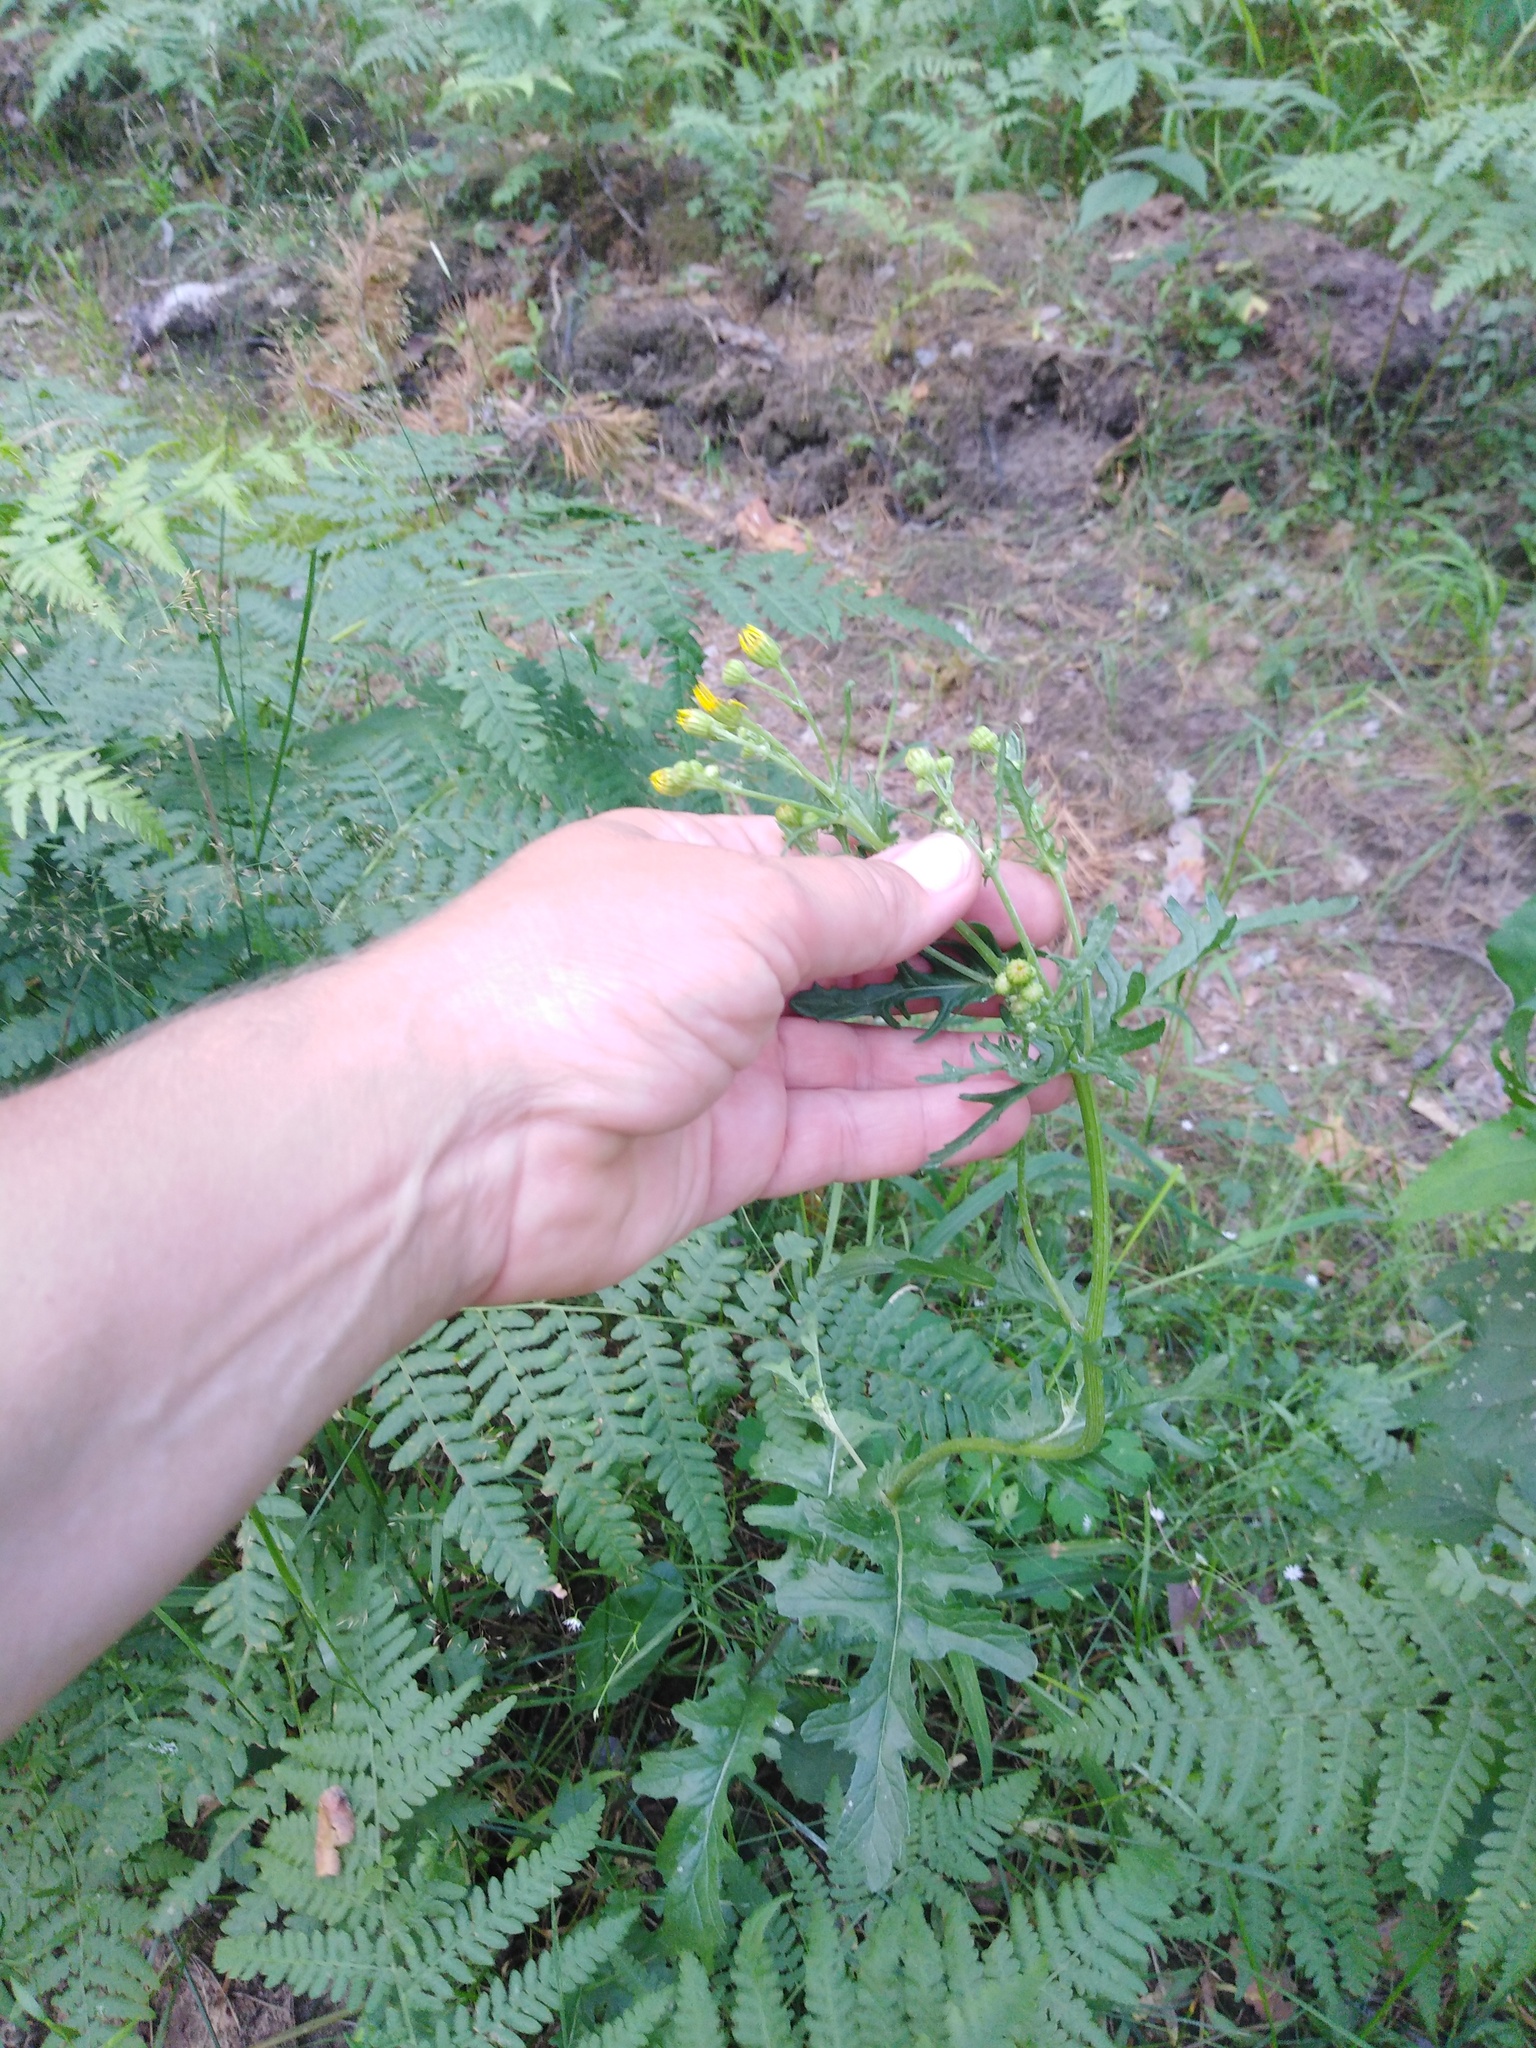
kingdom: Plantae
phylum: Tracheophyta
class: Magnoliopsida
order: Asterales
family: Asteraceae
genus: Jacobaea
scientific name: Jacobaea vulgaris
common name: Stinking willie
